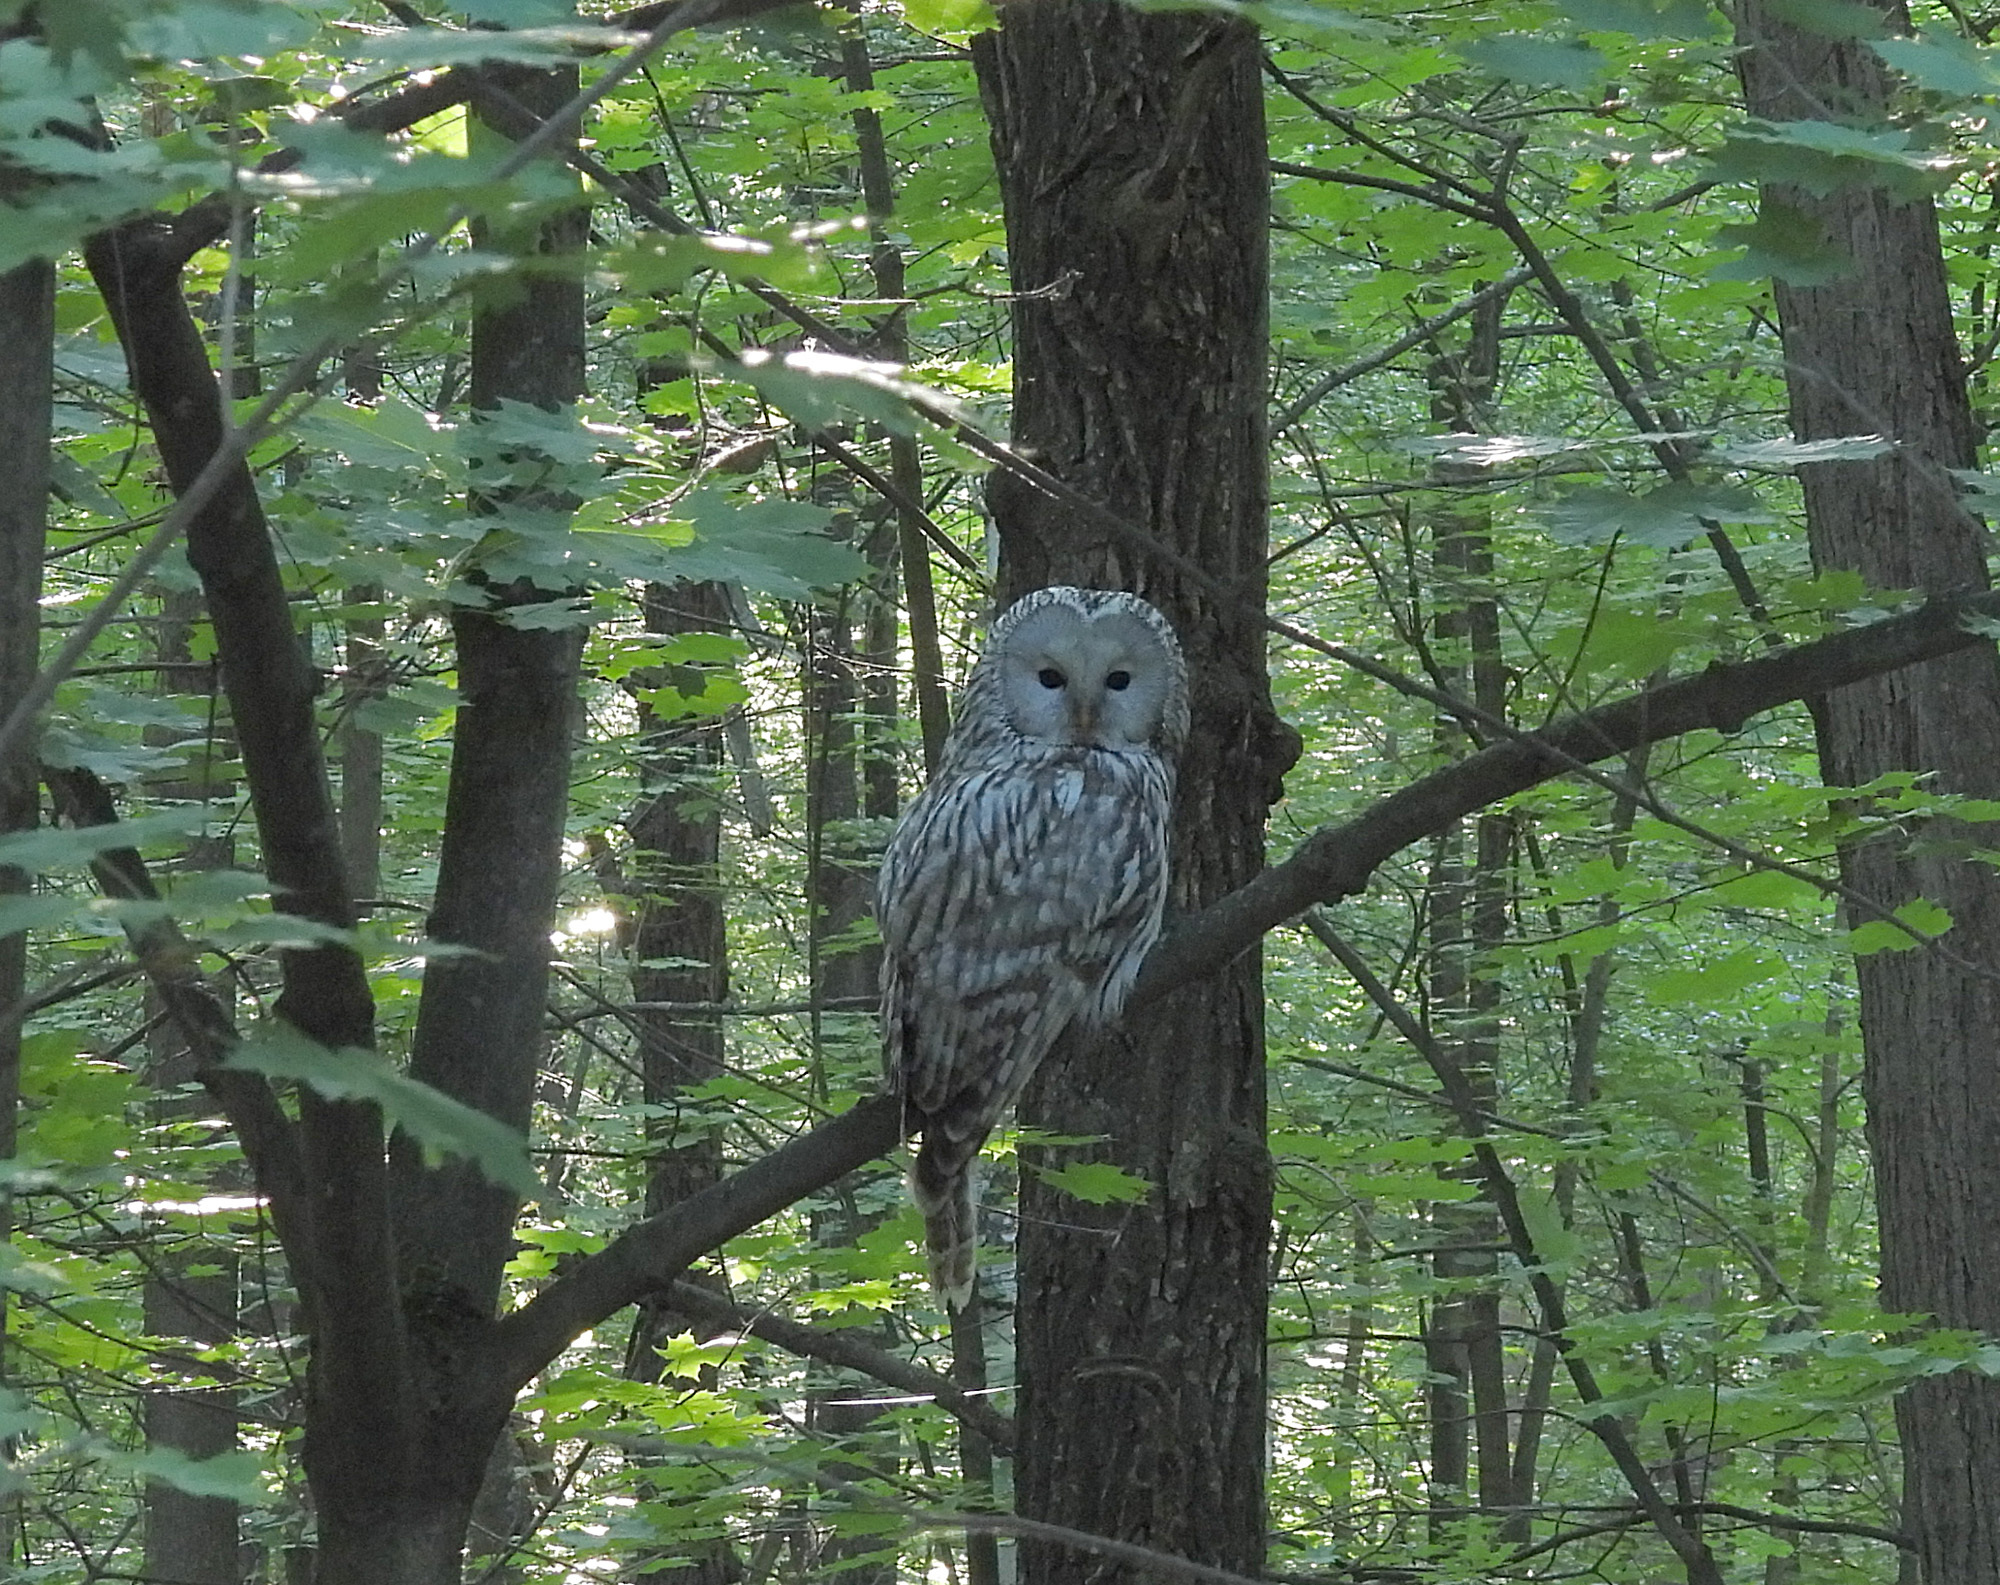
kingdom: Animalia
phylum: Chordata
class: Aves
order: Strigiformes
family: Strigidae
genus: Strix
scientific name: Strix uralensis
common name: Ural owl
